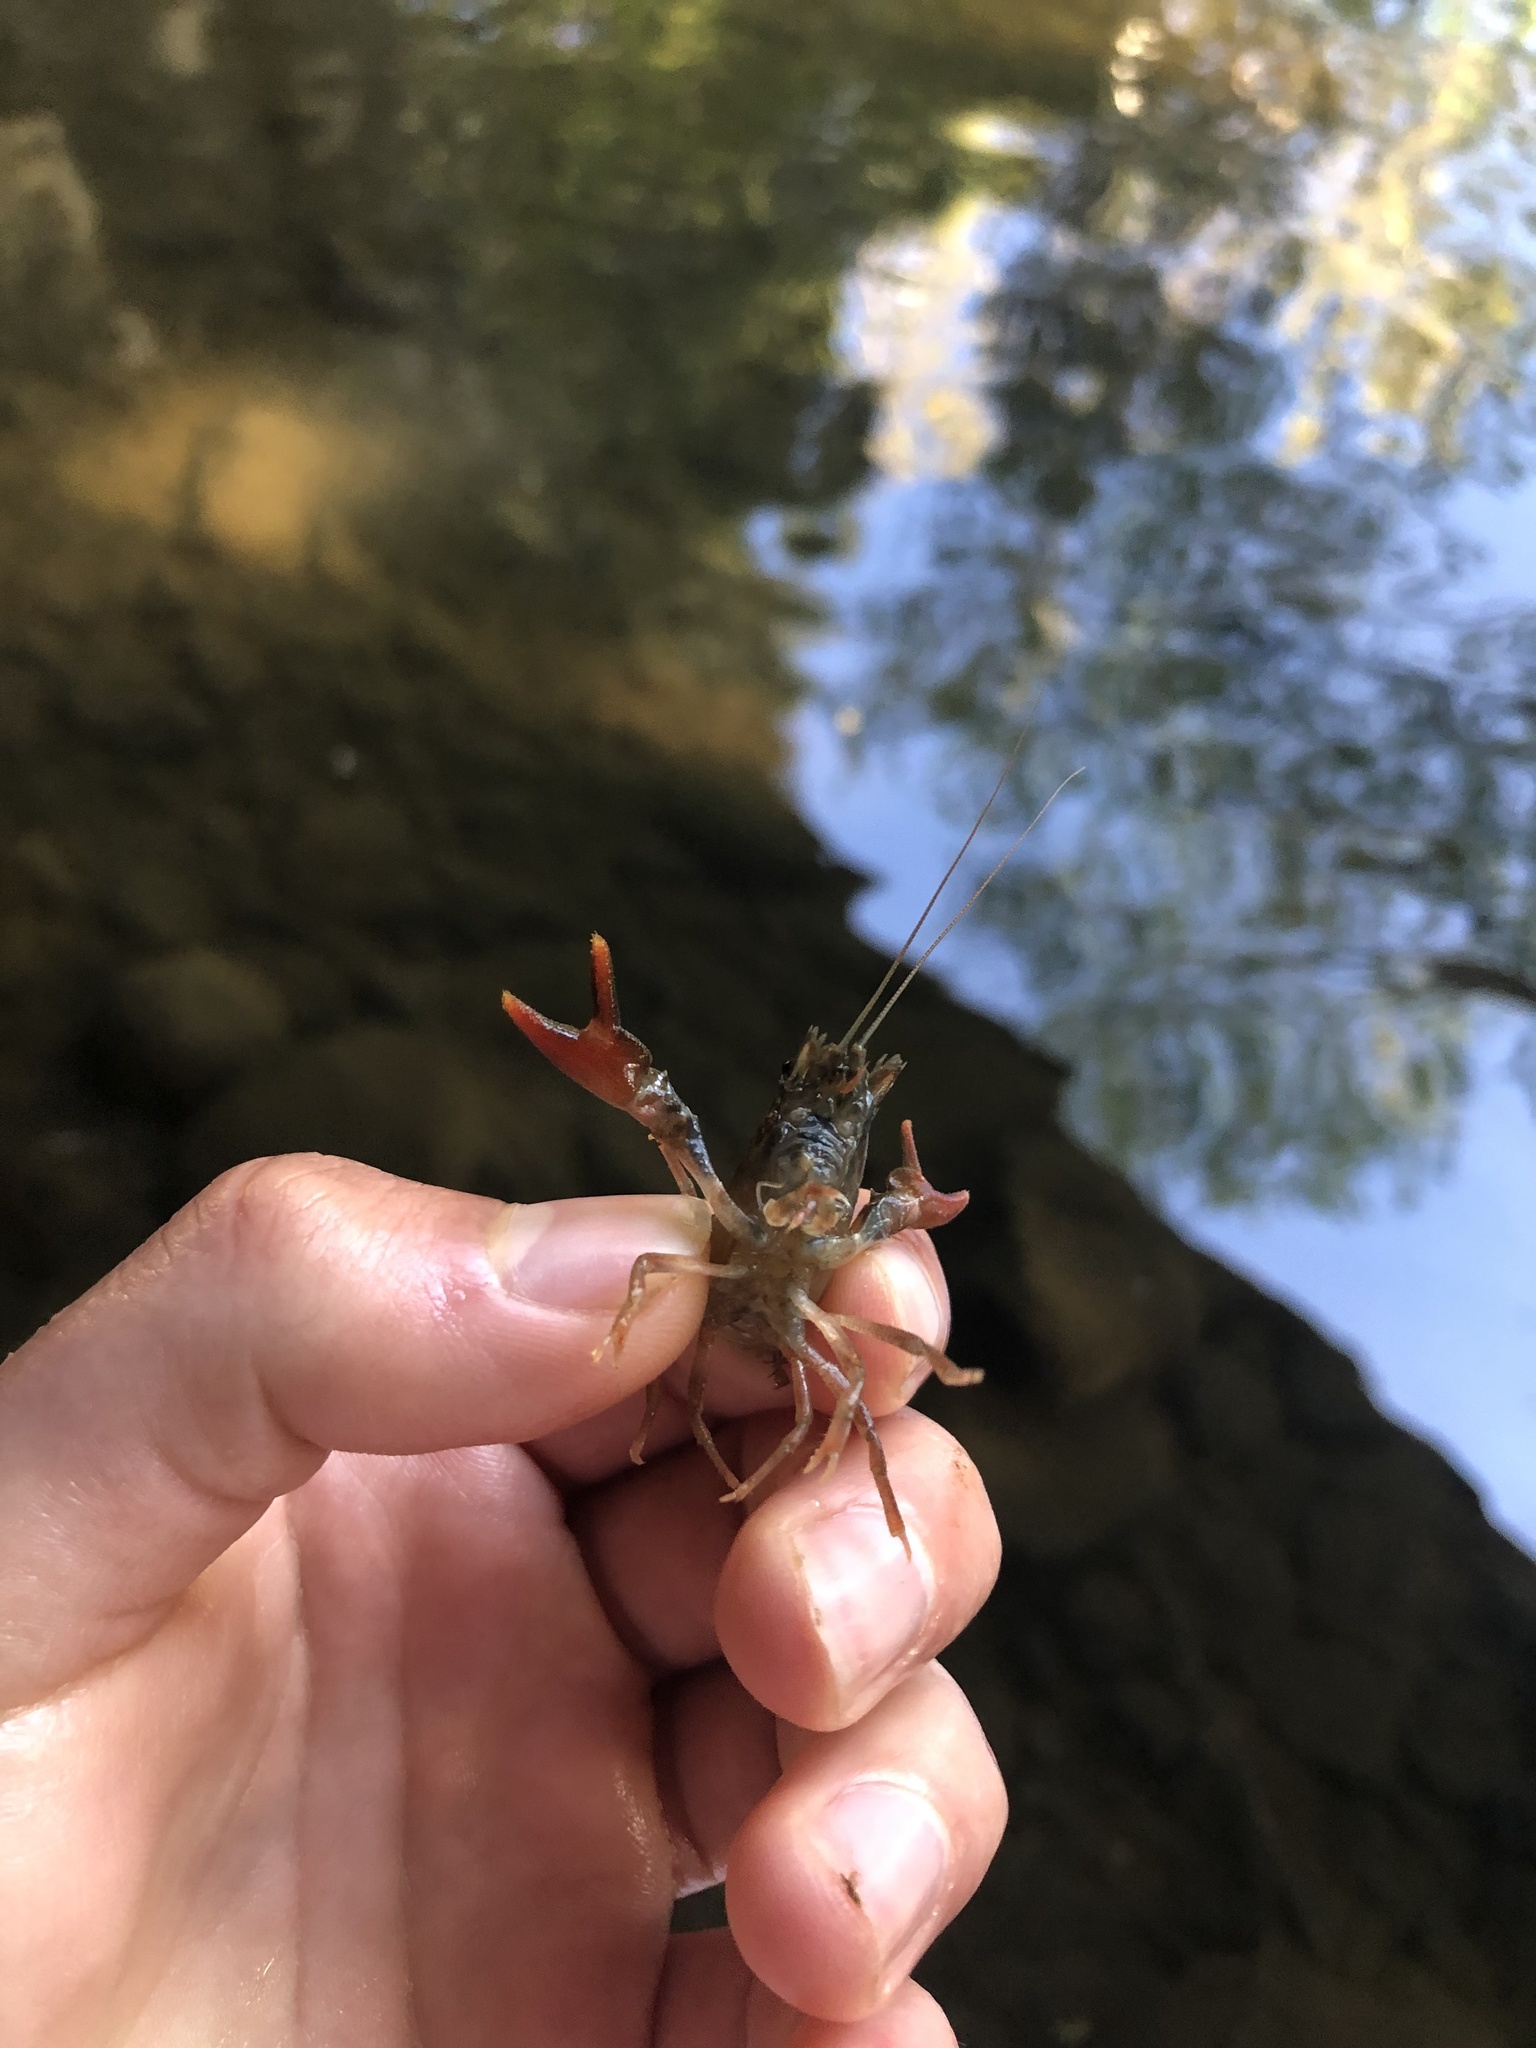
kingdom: Animalia
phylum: Arthropoda
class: Malacostraca
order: Decapoda
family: Astacidae
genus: Pacifastacus
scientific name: Pacifastacus leniusculus
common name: Signal crayfish
